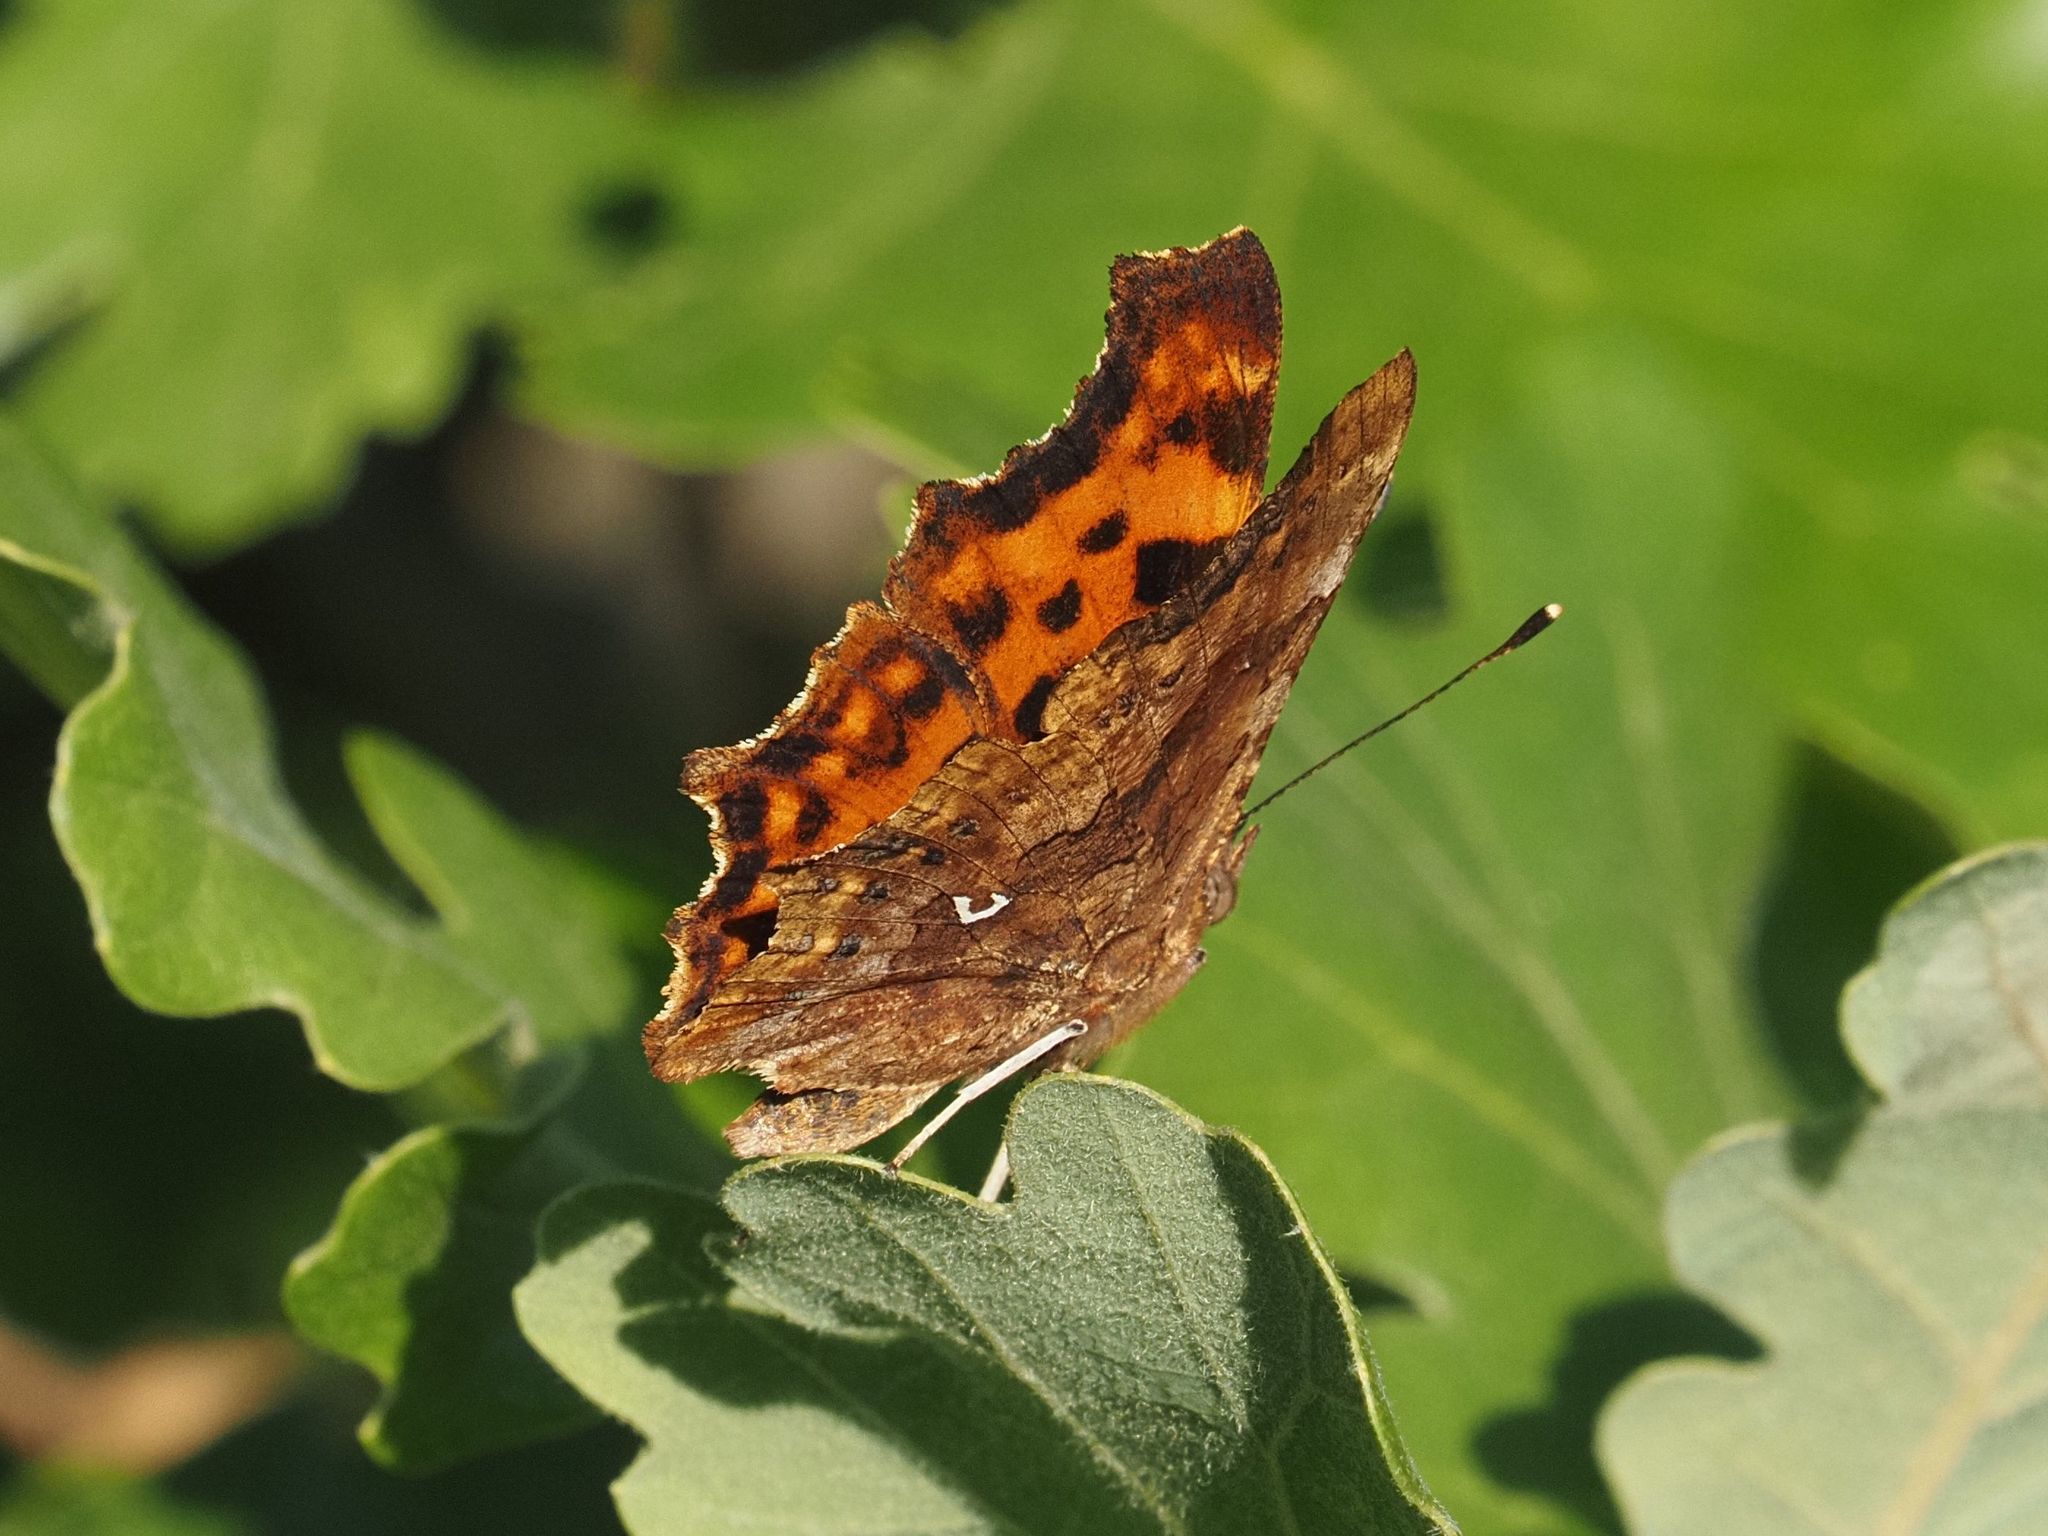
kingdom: Animalia
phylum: Arthropoda
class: Insecta
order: Lepidoptera
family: Nymphalidae
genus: Polygonia
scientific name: Polygonia c-album
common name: Comma
